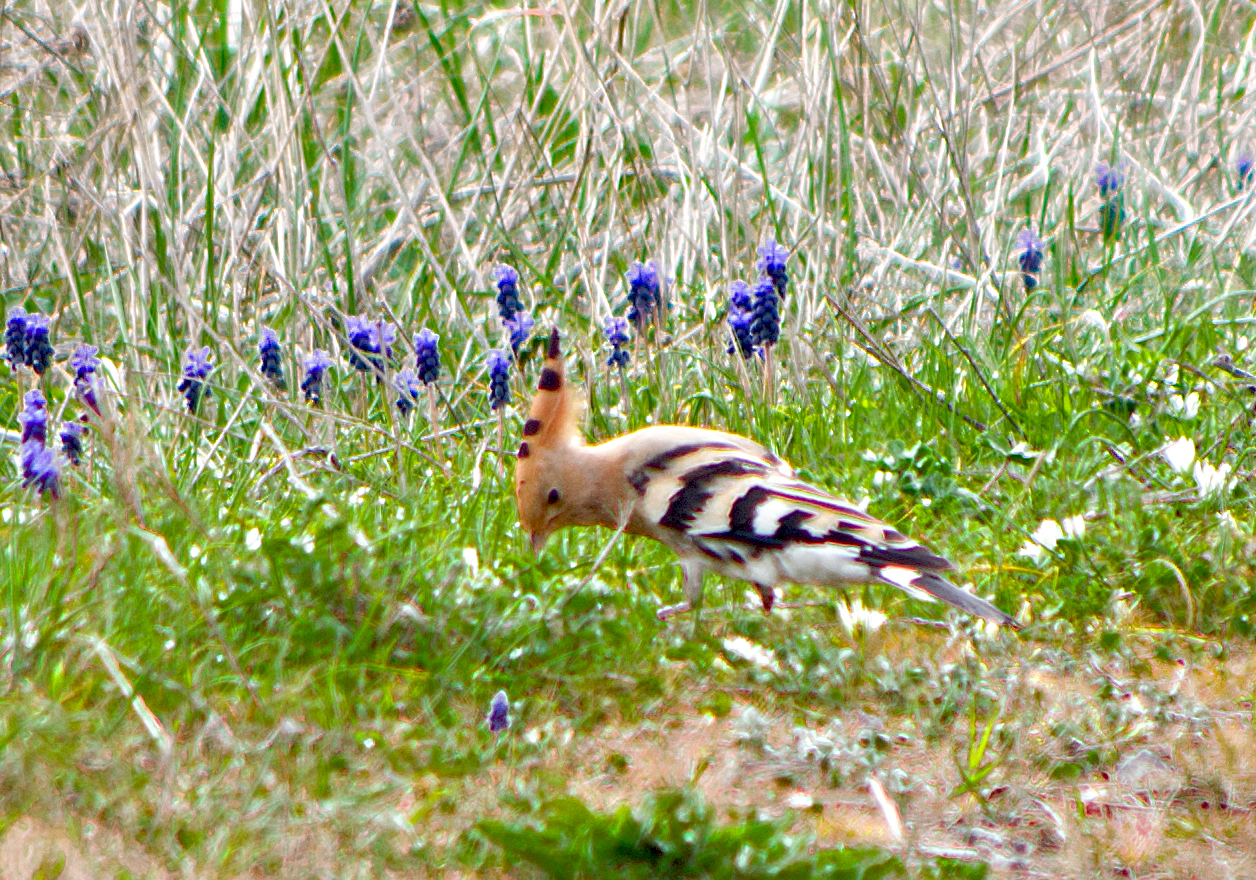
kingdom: Animalia
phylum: Chordata
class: Aves
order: Bucerotiformes
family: Upupidae
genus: Upupa
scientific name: Upupa epops
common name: Eurasian hoopoe
